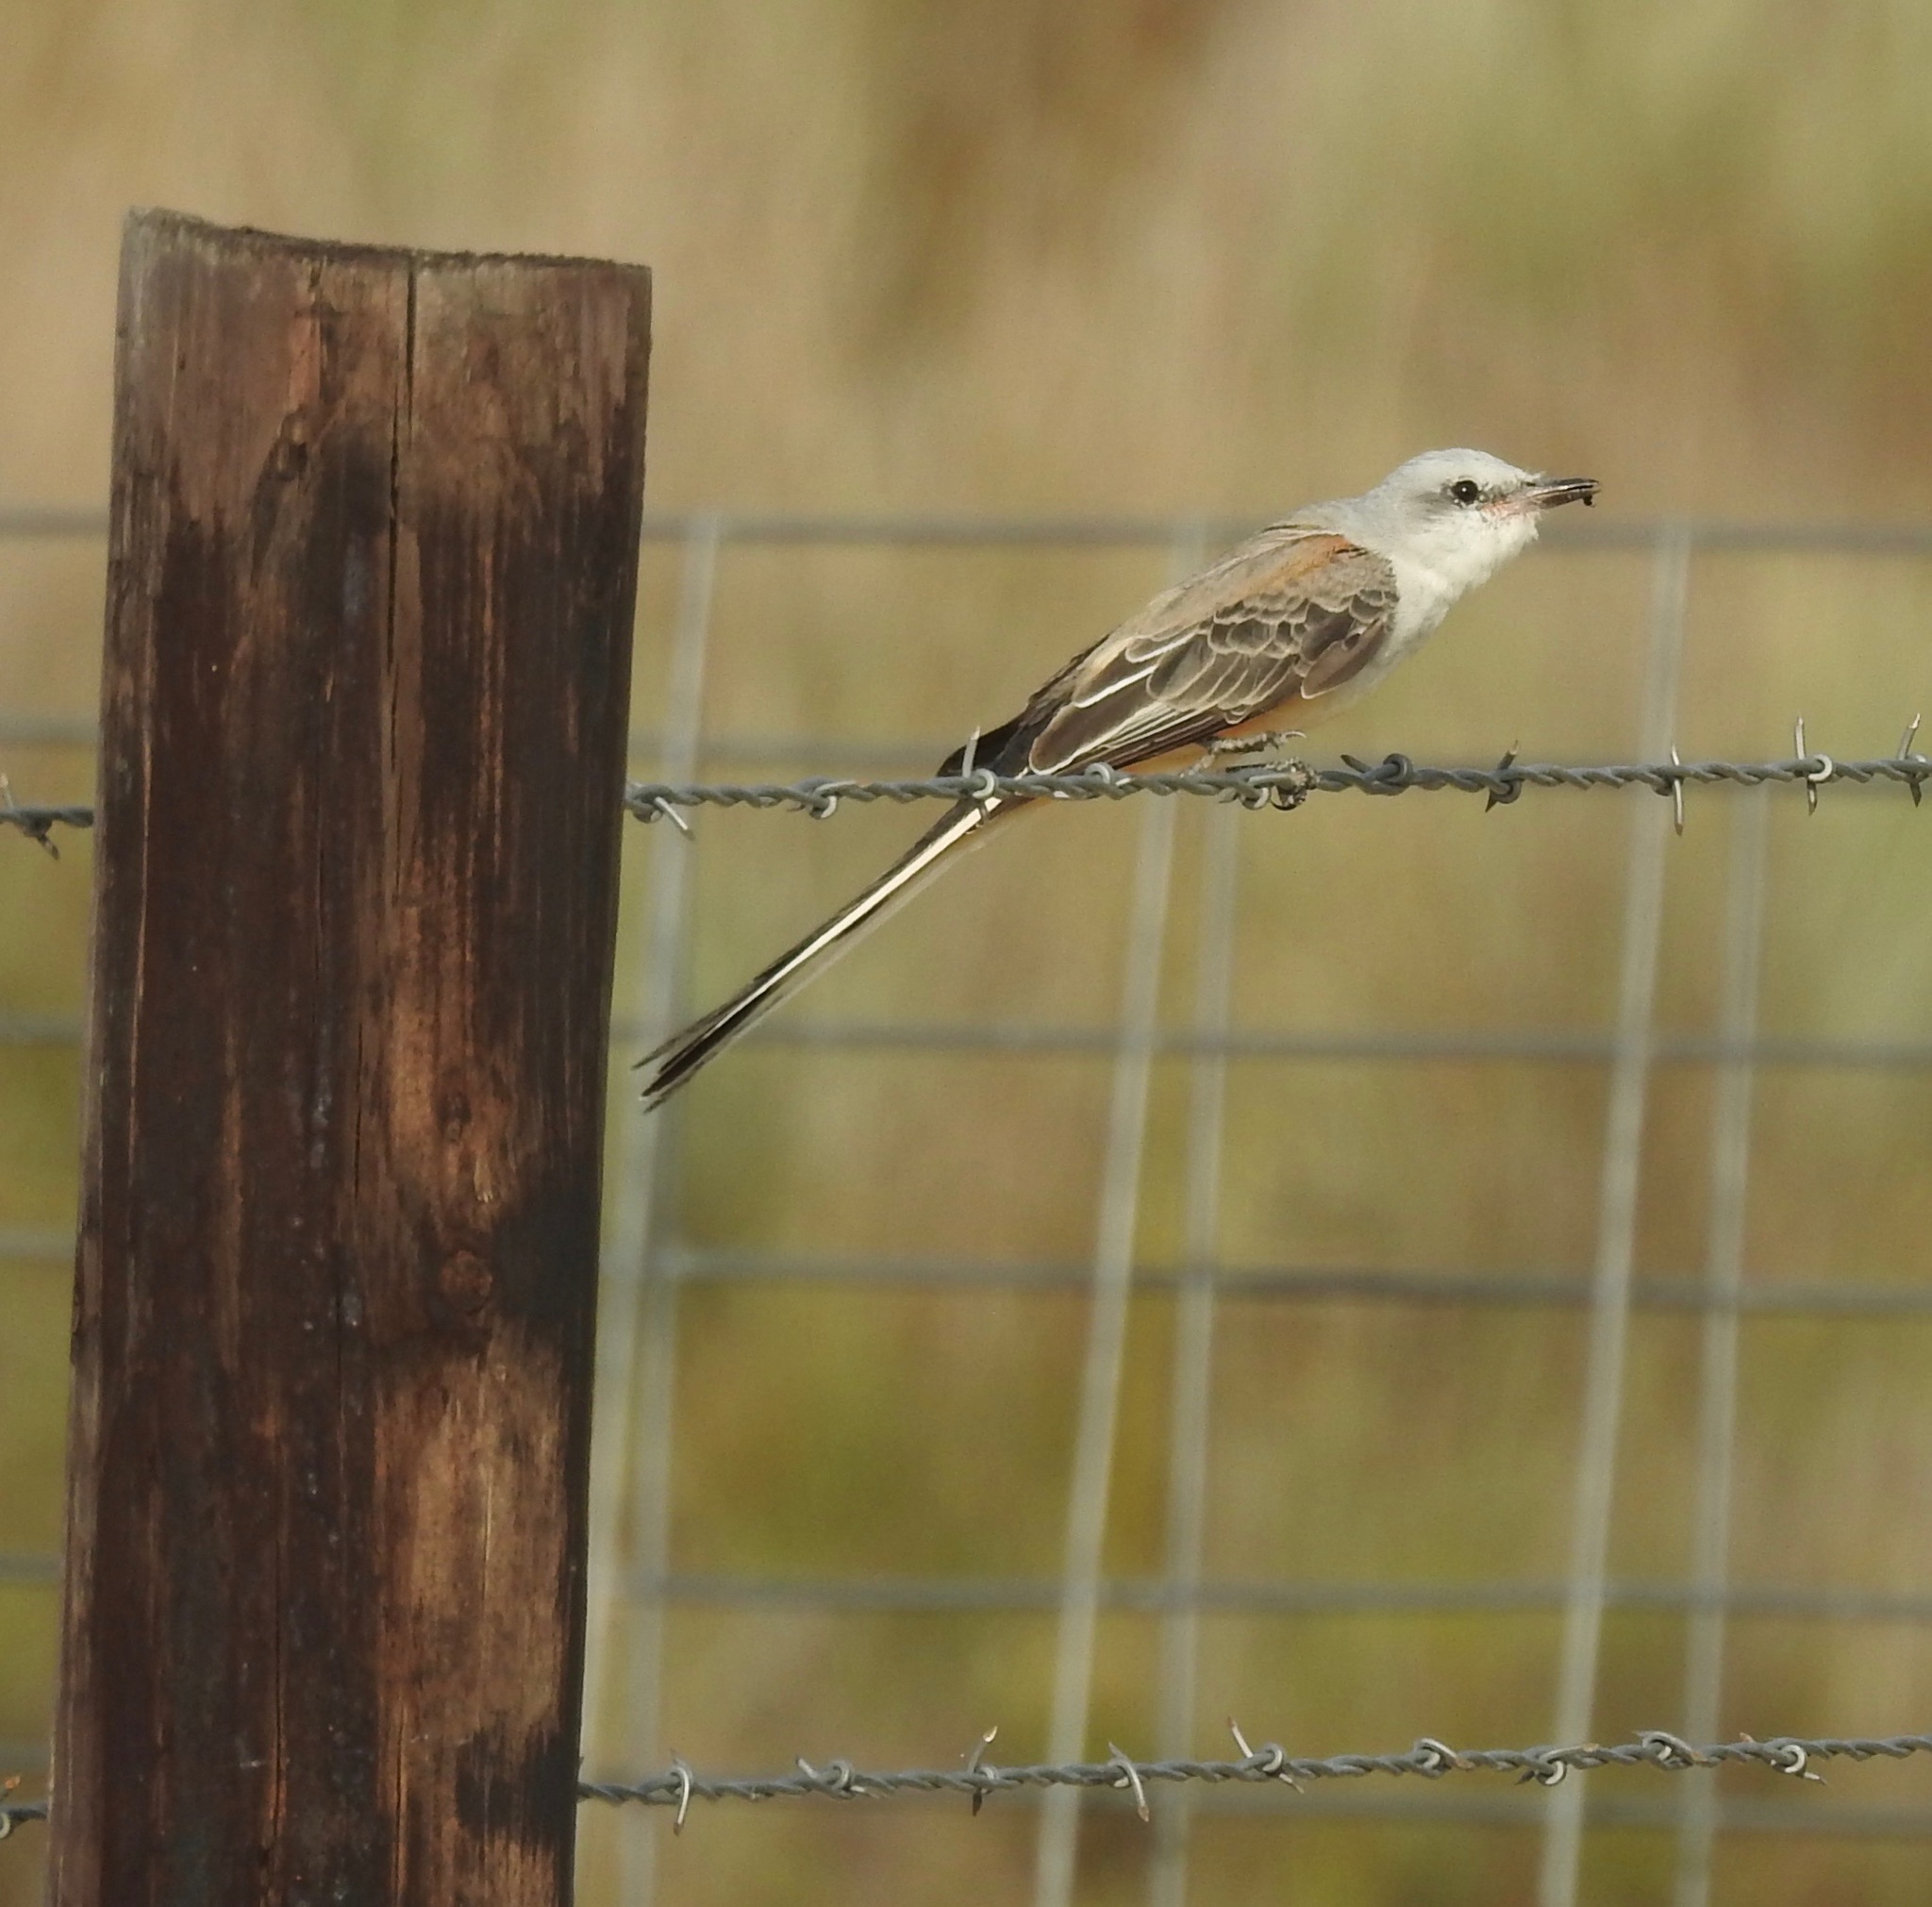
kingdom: Animalia
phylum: Chordata
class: Aves
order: Passeriformes
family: Tyrannidae
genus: Tyrannus
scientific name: Tyrannus forficatus
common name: Scissor-tailed flycatcher
